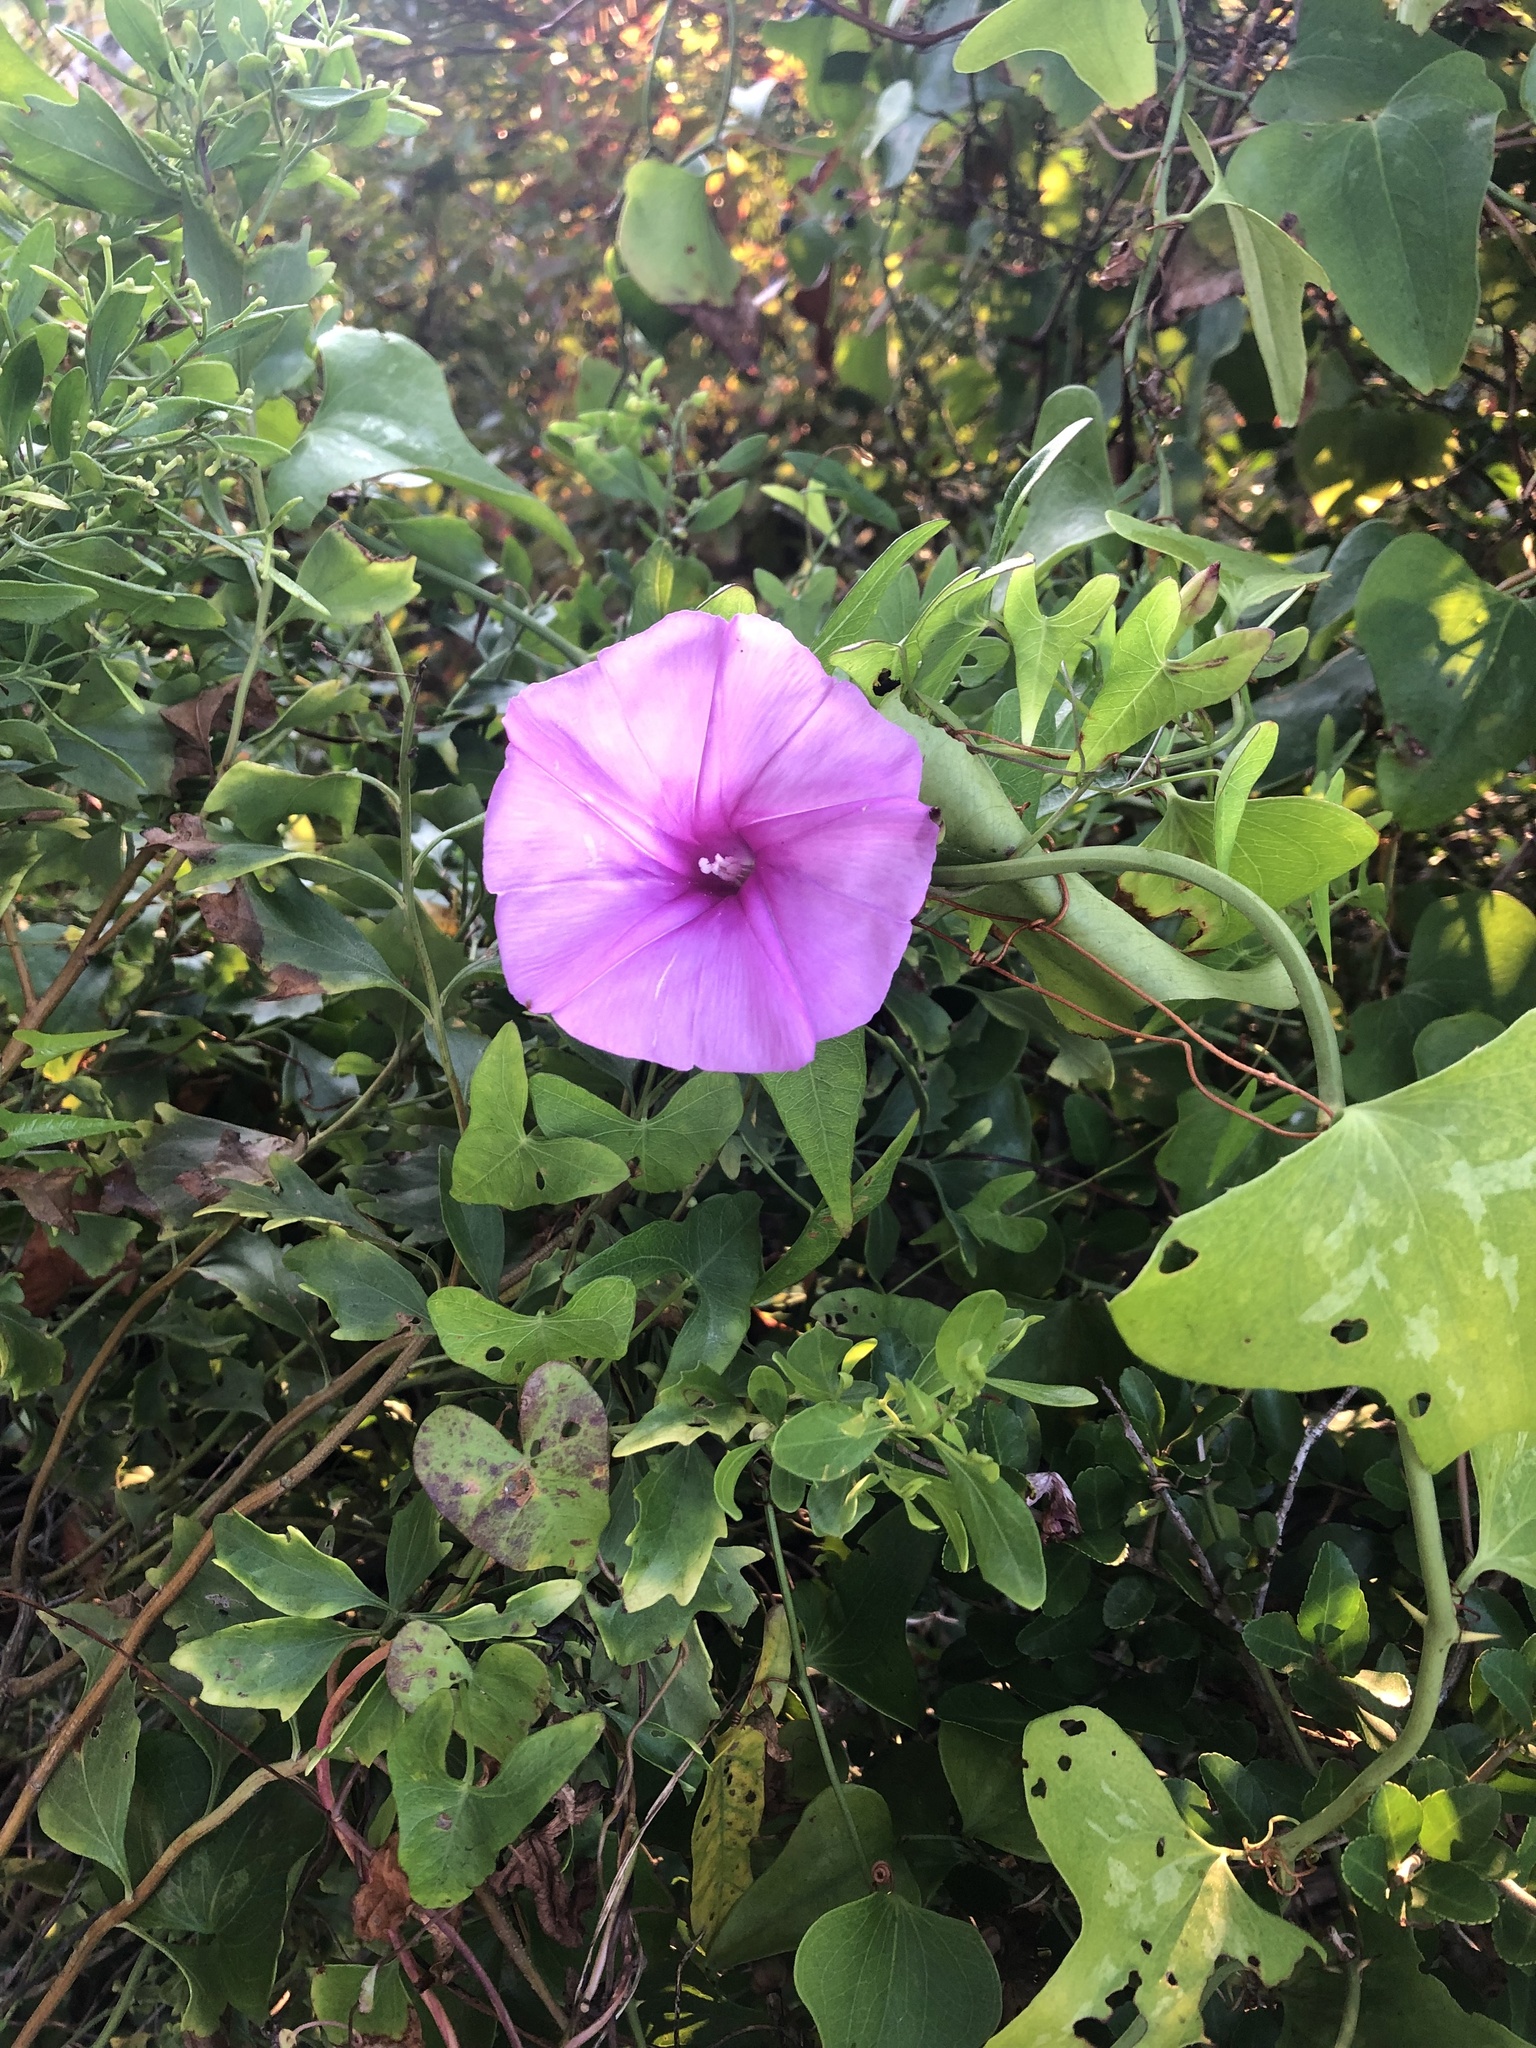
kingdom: Plantae
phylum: Tracheophyta
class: Magnoliopsida
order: Solanales
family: Convolvulaceae
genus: Ipomoea
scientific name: Ipomoea sagittata
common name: Saltmarsh morning glory
